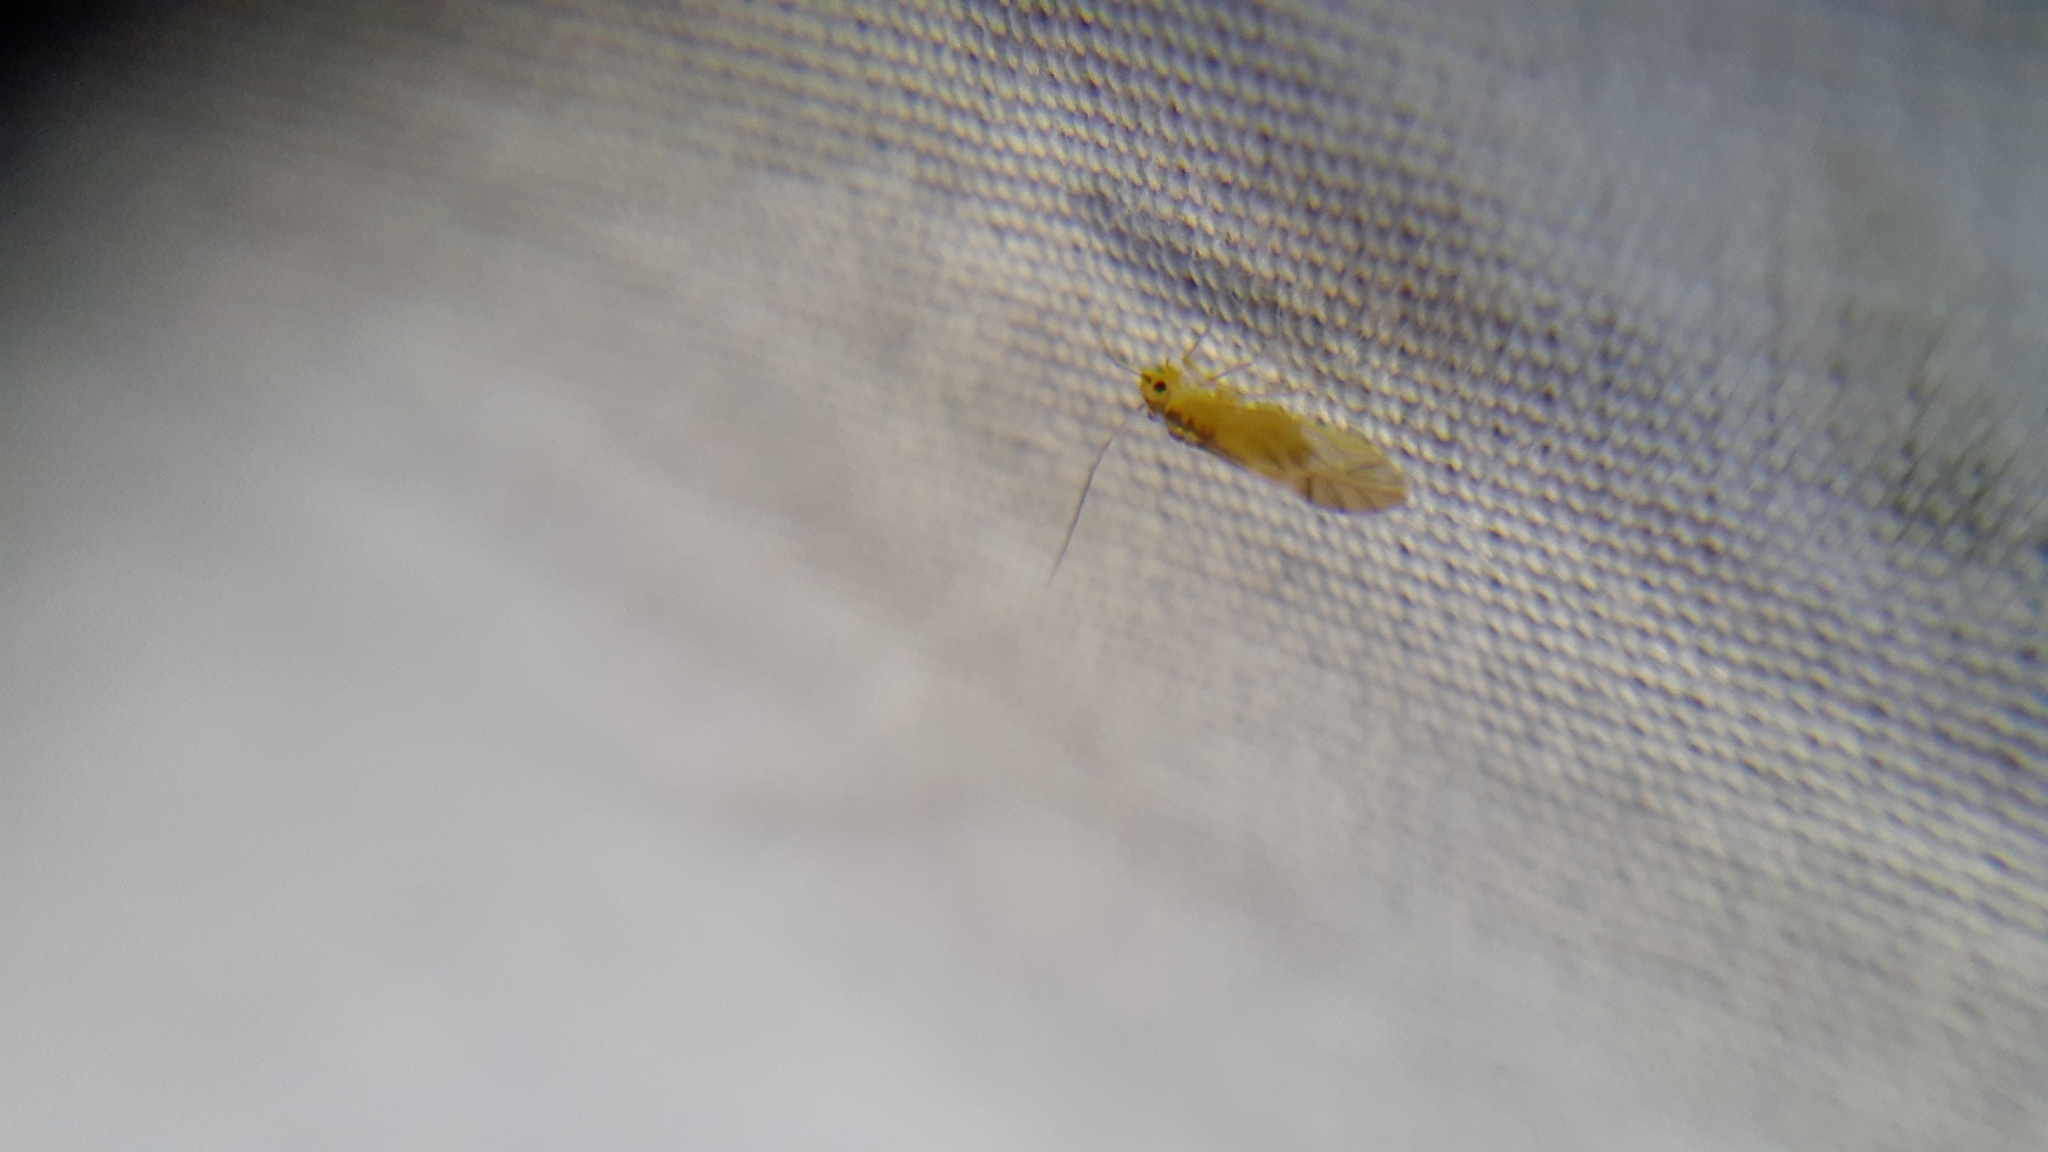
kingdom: Animalia
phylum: Arthropoda
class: Insecta
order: Psocodea
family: Caeciliusidae
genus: Valenzuela
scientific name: Valenzuela flavidus
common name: Yellow barklouse
